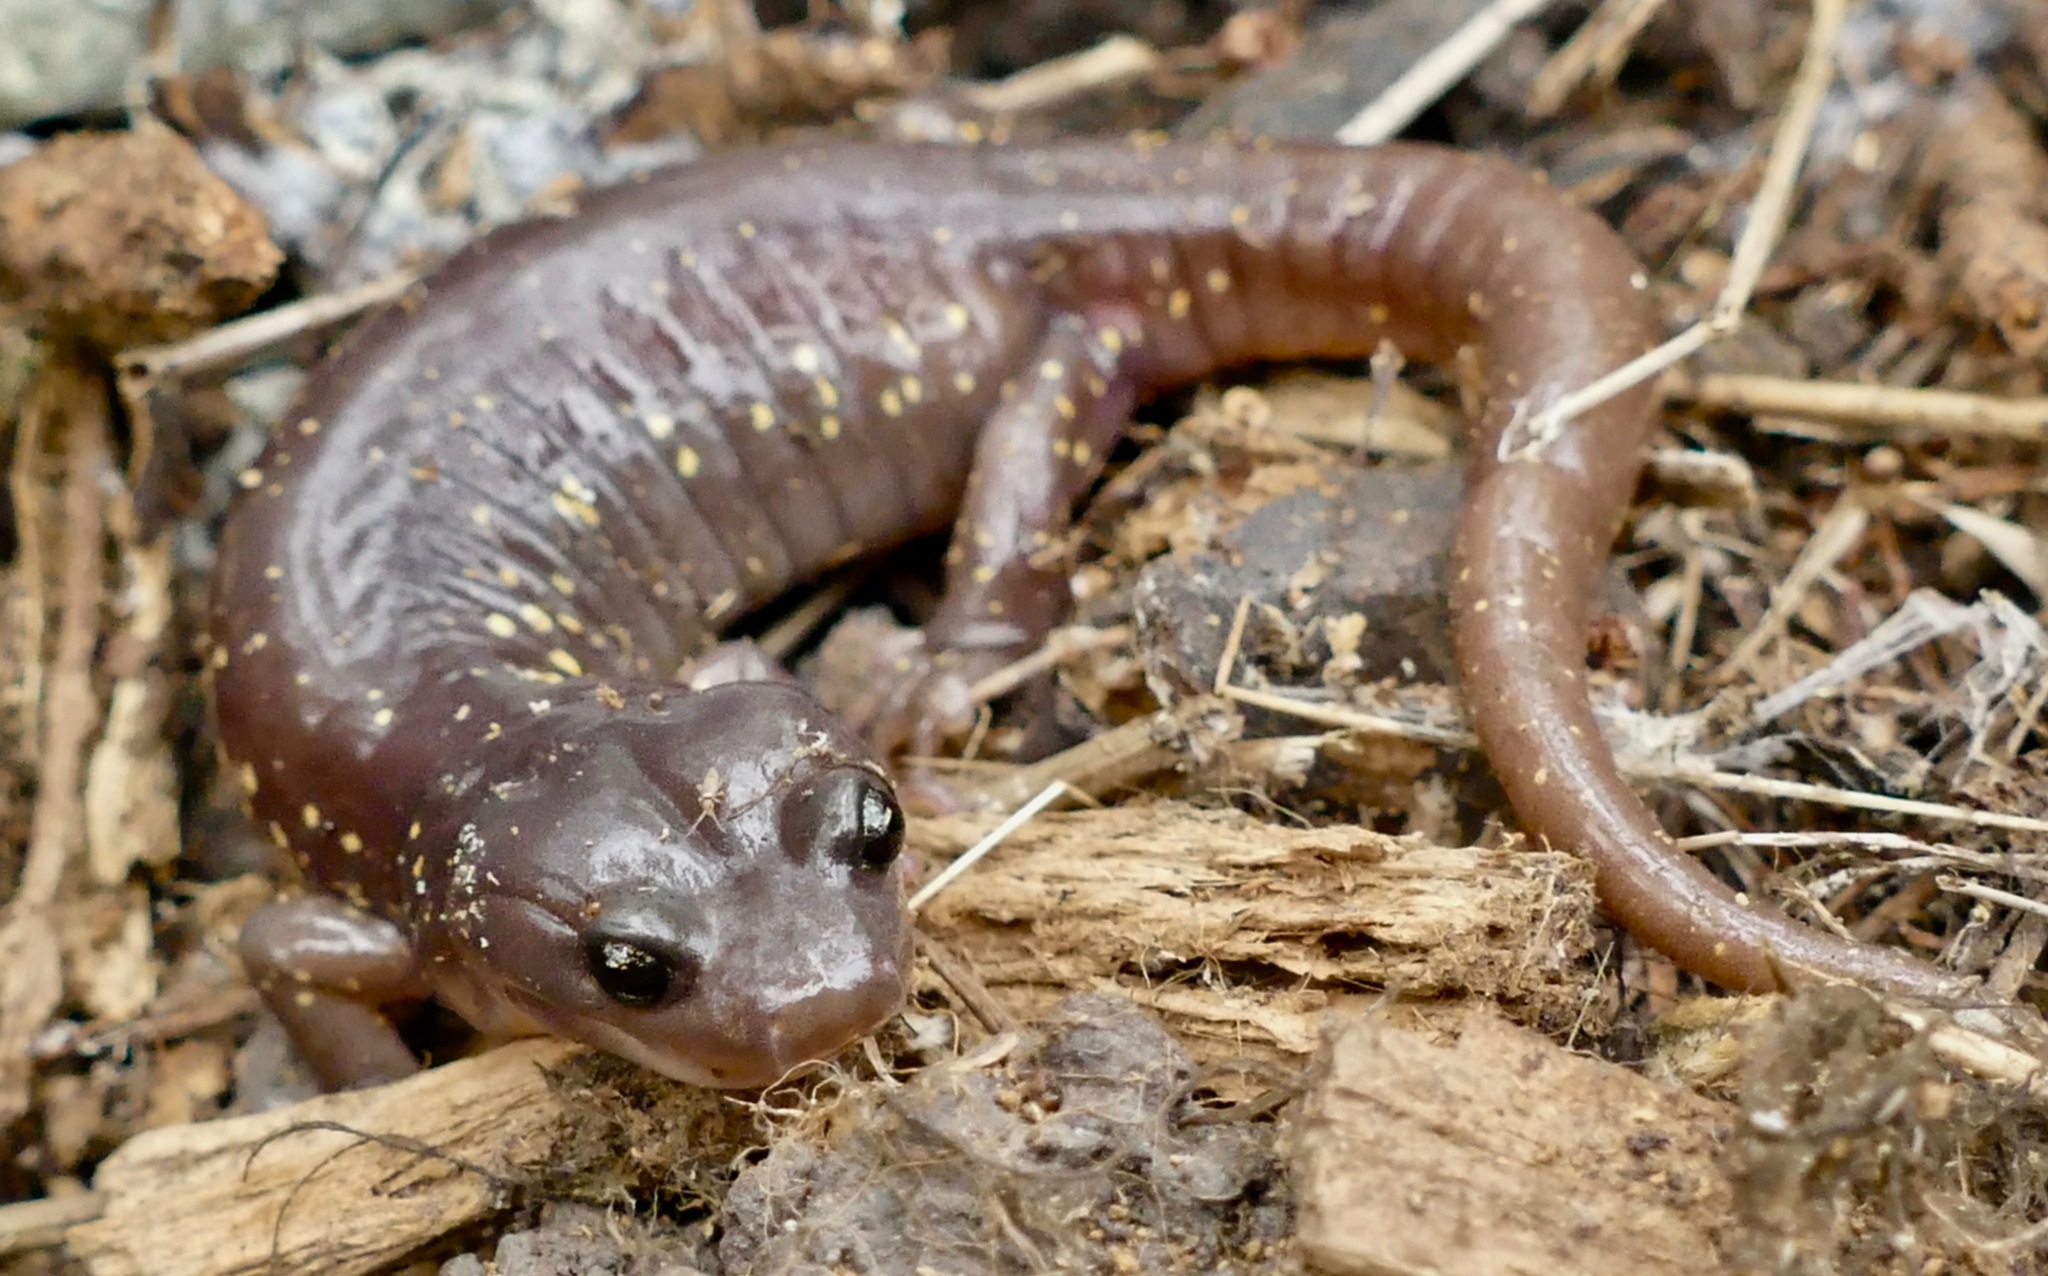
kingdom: Animalia
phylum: Chordata
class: Amphibia
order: Caudata
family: Plethodontidae
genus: Aneides
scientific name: Aneides lugubris
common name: Arboreal salamander
